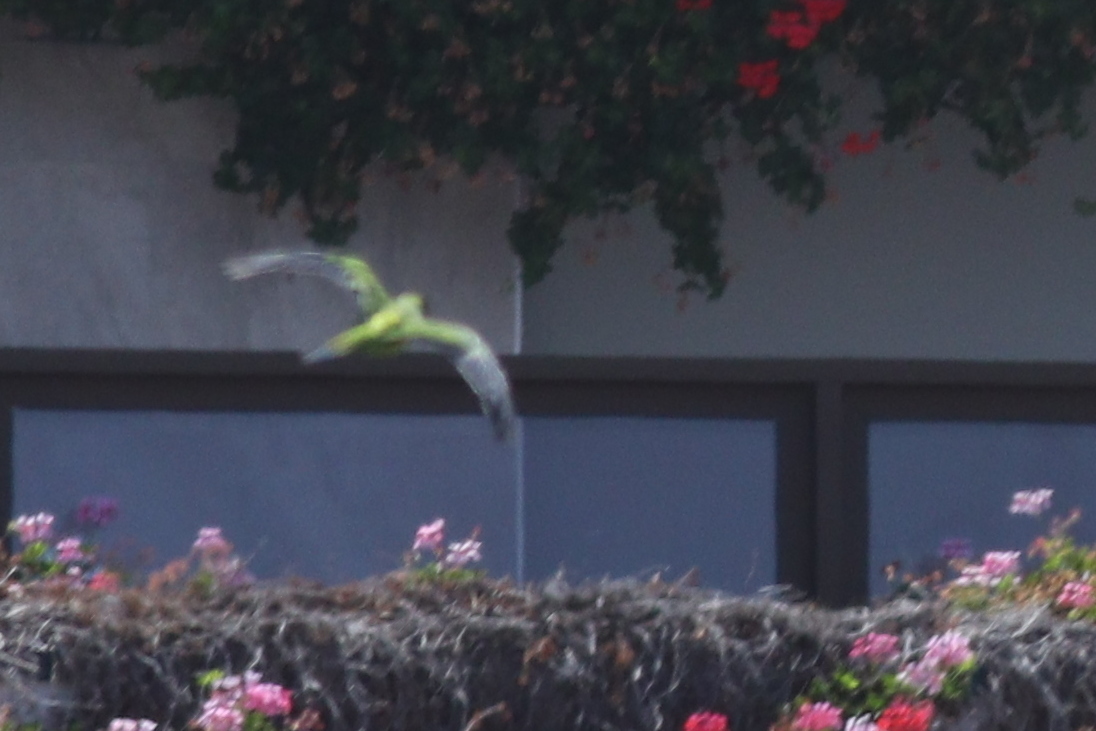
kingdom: Animalia
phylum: Chordata
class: Aves
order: Psittaciformes
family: Psittacidae
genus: Nandayus
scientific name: Nandayus nenday
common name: Nanday parakeet
